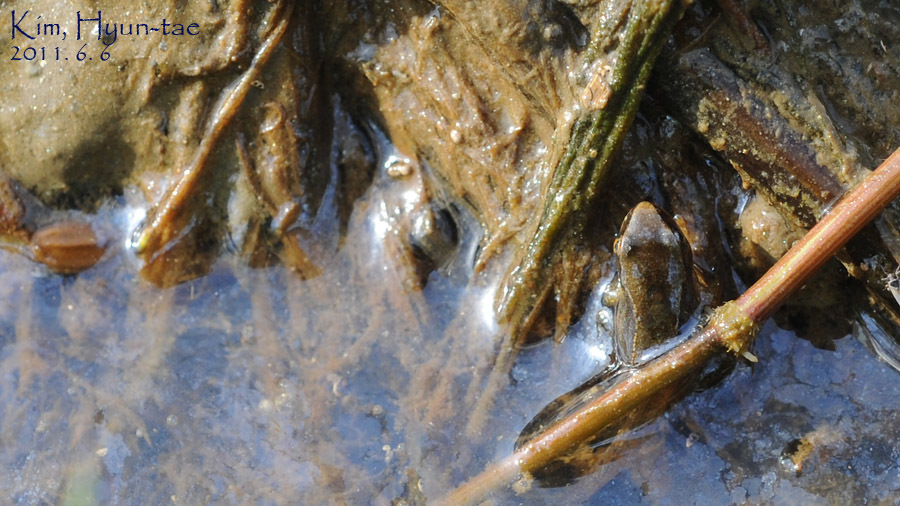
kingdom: Animalia
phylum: Chordata
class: Amphibia
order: Anura
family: Ranidae
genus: Rana
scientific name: Rana coreana
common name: Korean brown frog
